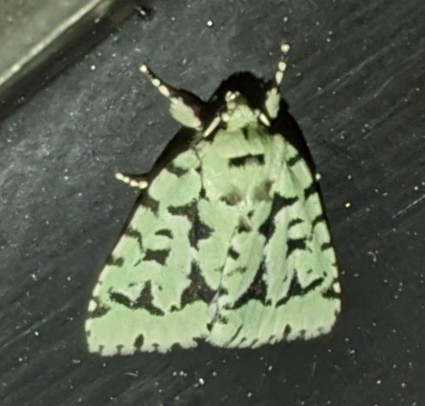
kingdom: Animalia
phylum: Arthropoda
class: Insecta
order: Lepidoptera
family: Noctuidae
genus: Acronicta
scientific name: Acronicta fallax
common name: Green marvel
